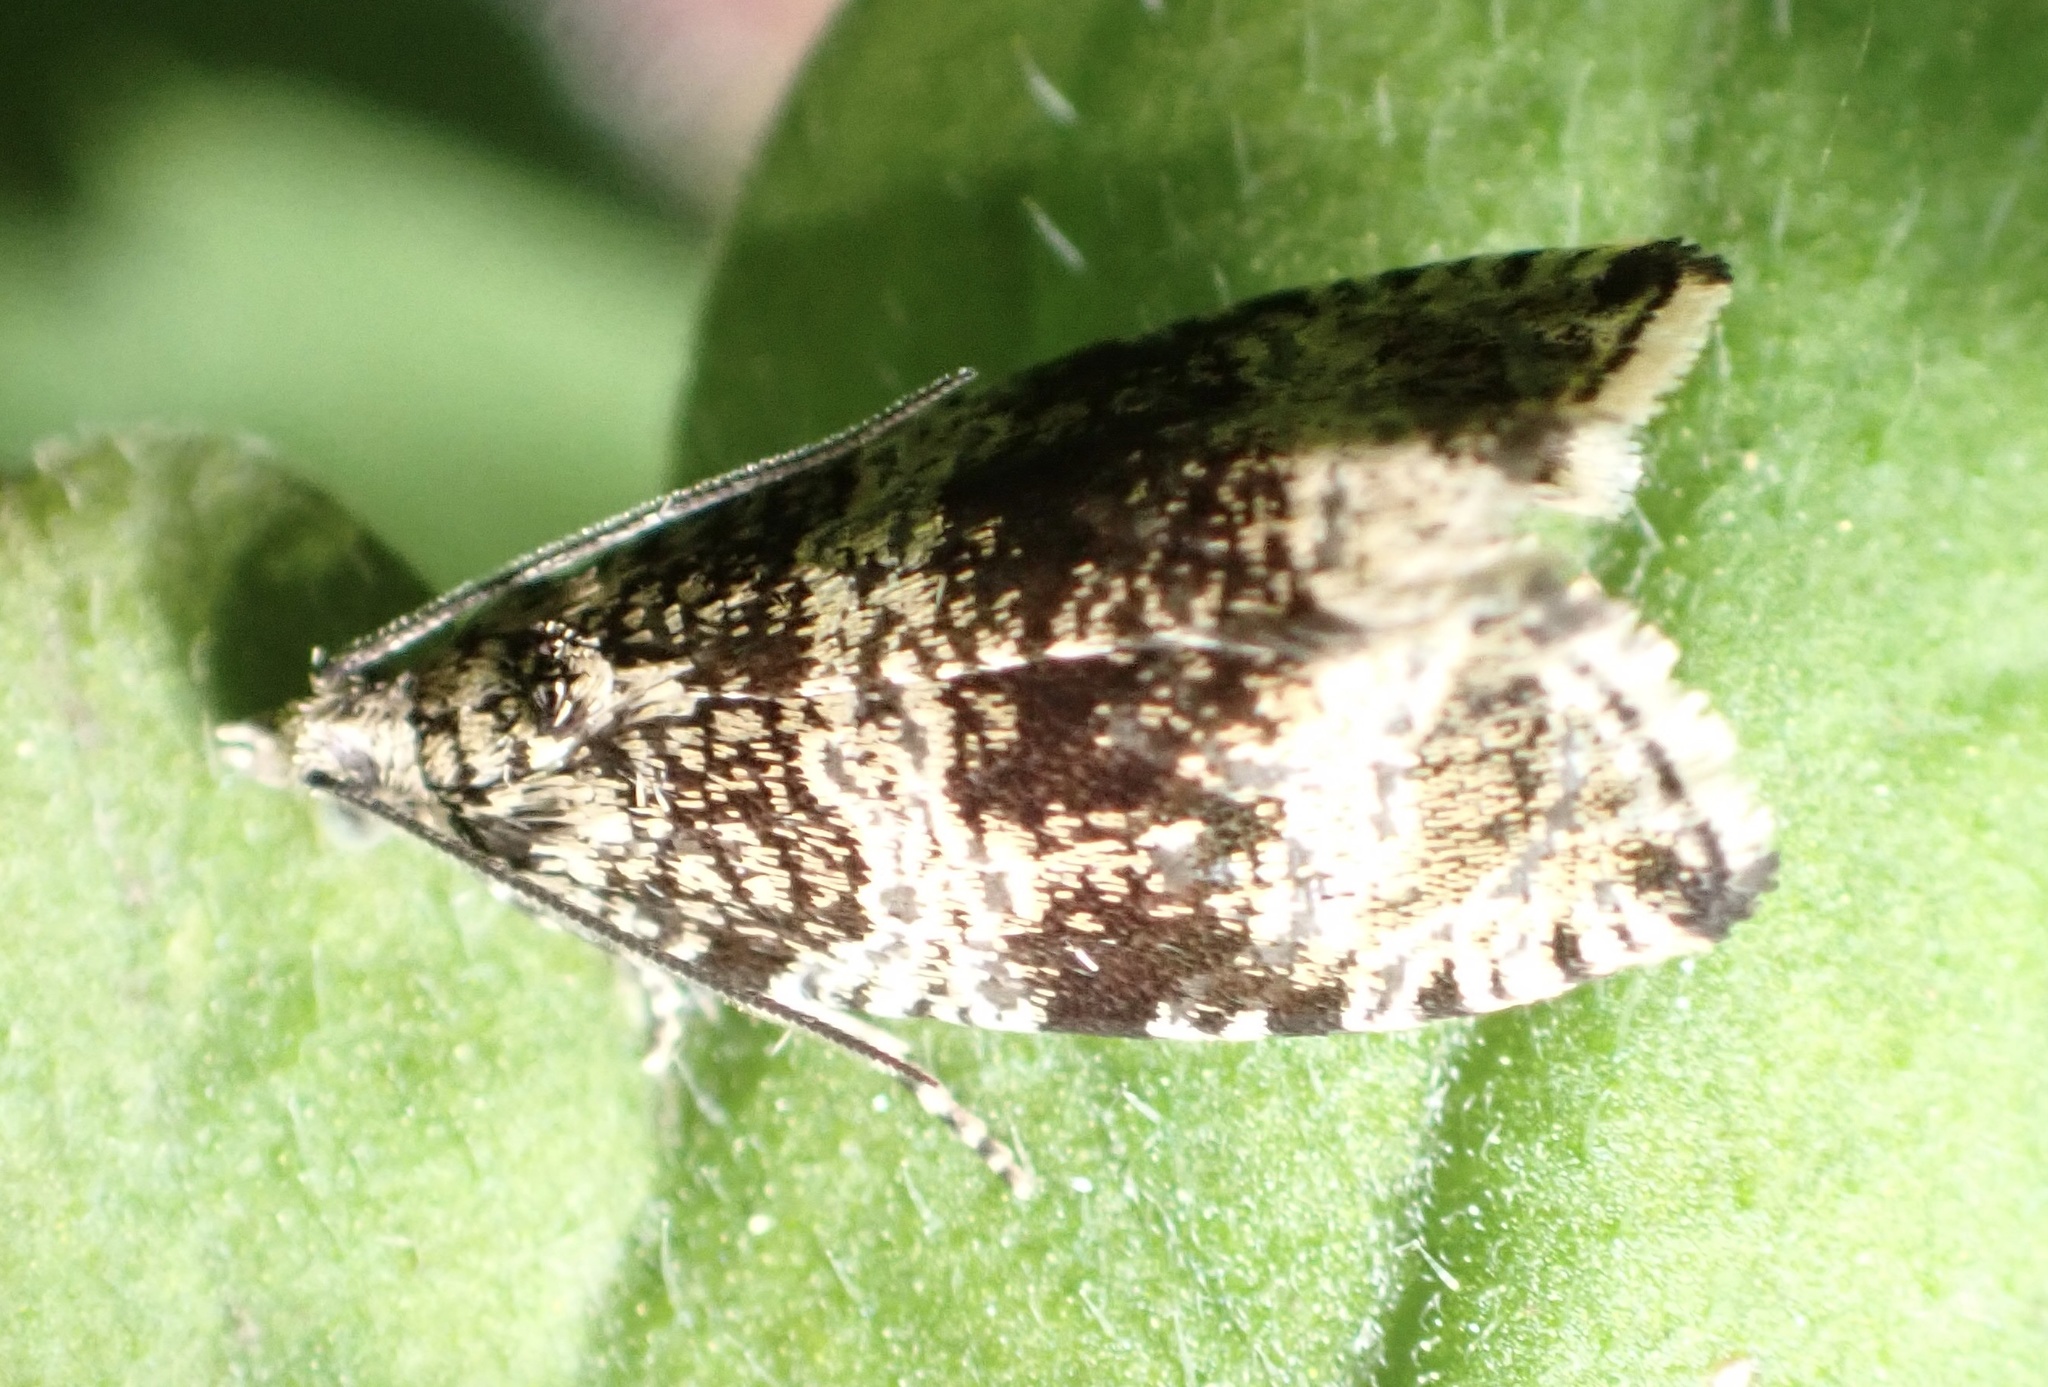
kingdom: Animalia
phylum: Arthropoda
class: Insecta
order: Lepidoptera
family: Tortricidae
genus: Syricoris
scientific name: Syricoris lacunana
